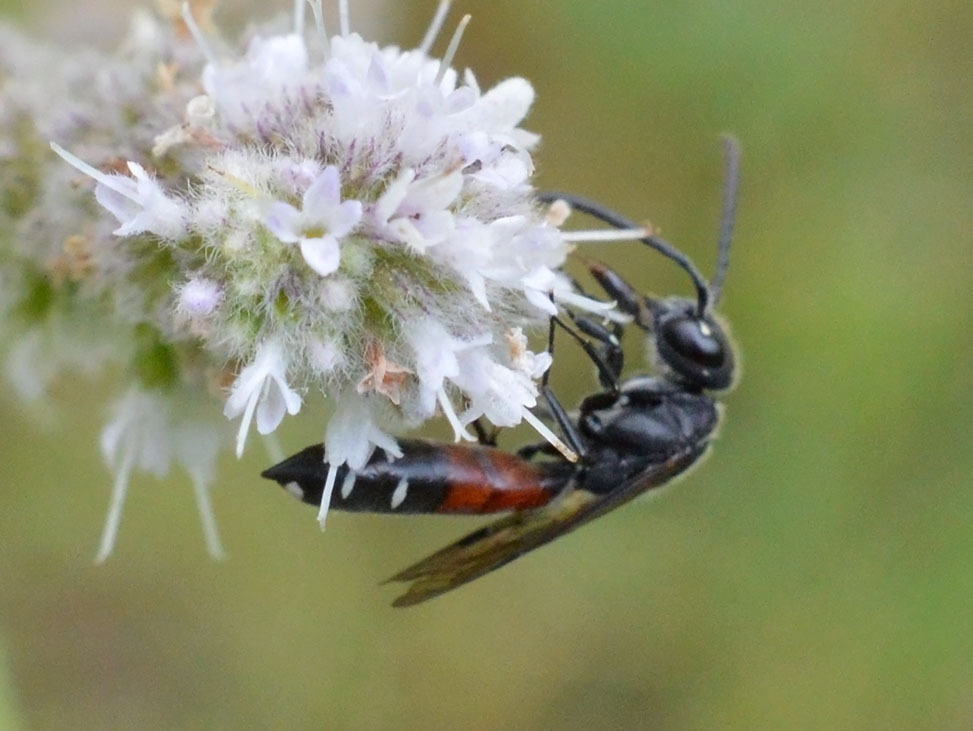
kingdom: Animalia
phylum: Arthropoda
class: Insecta
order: Hymenoptera
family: Sapygidae
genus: Sapyga
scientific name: Sapyga quinquepunctata
